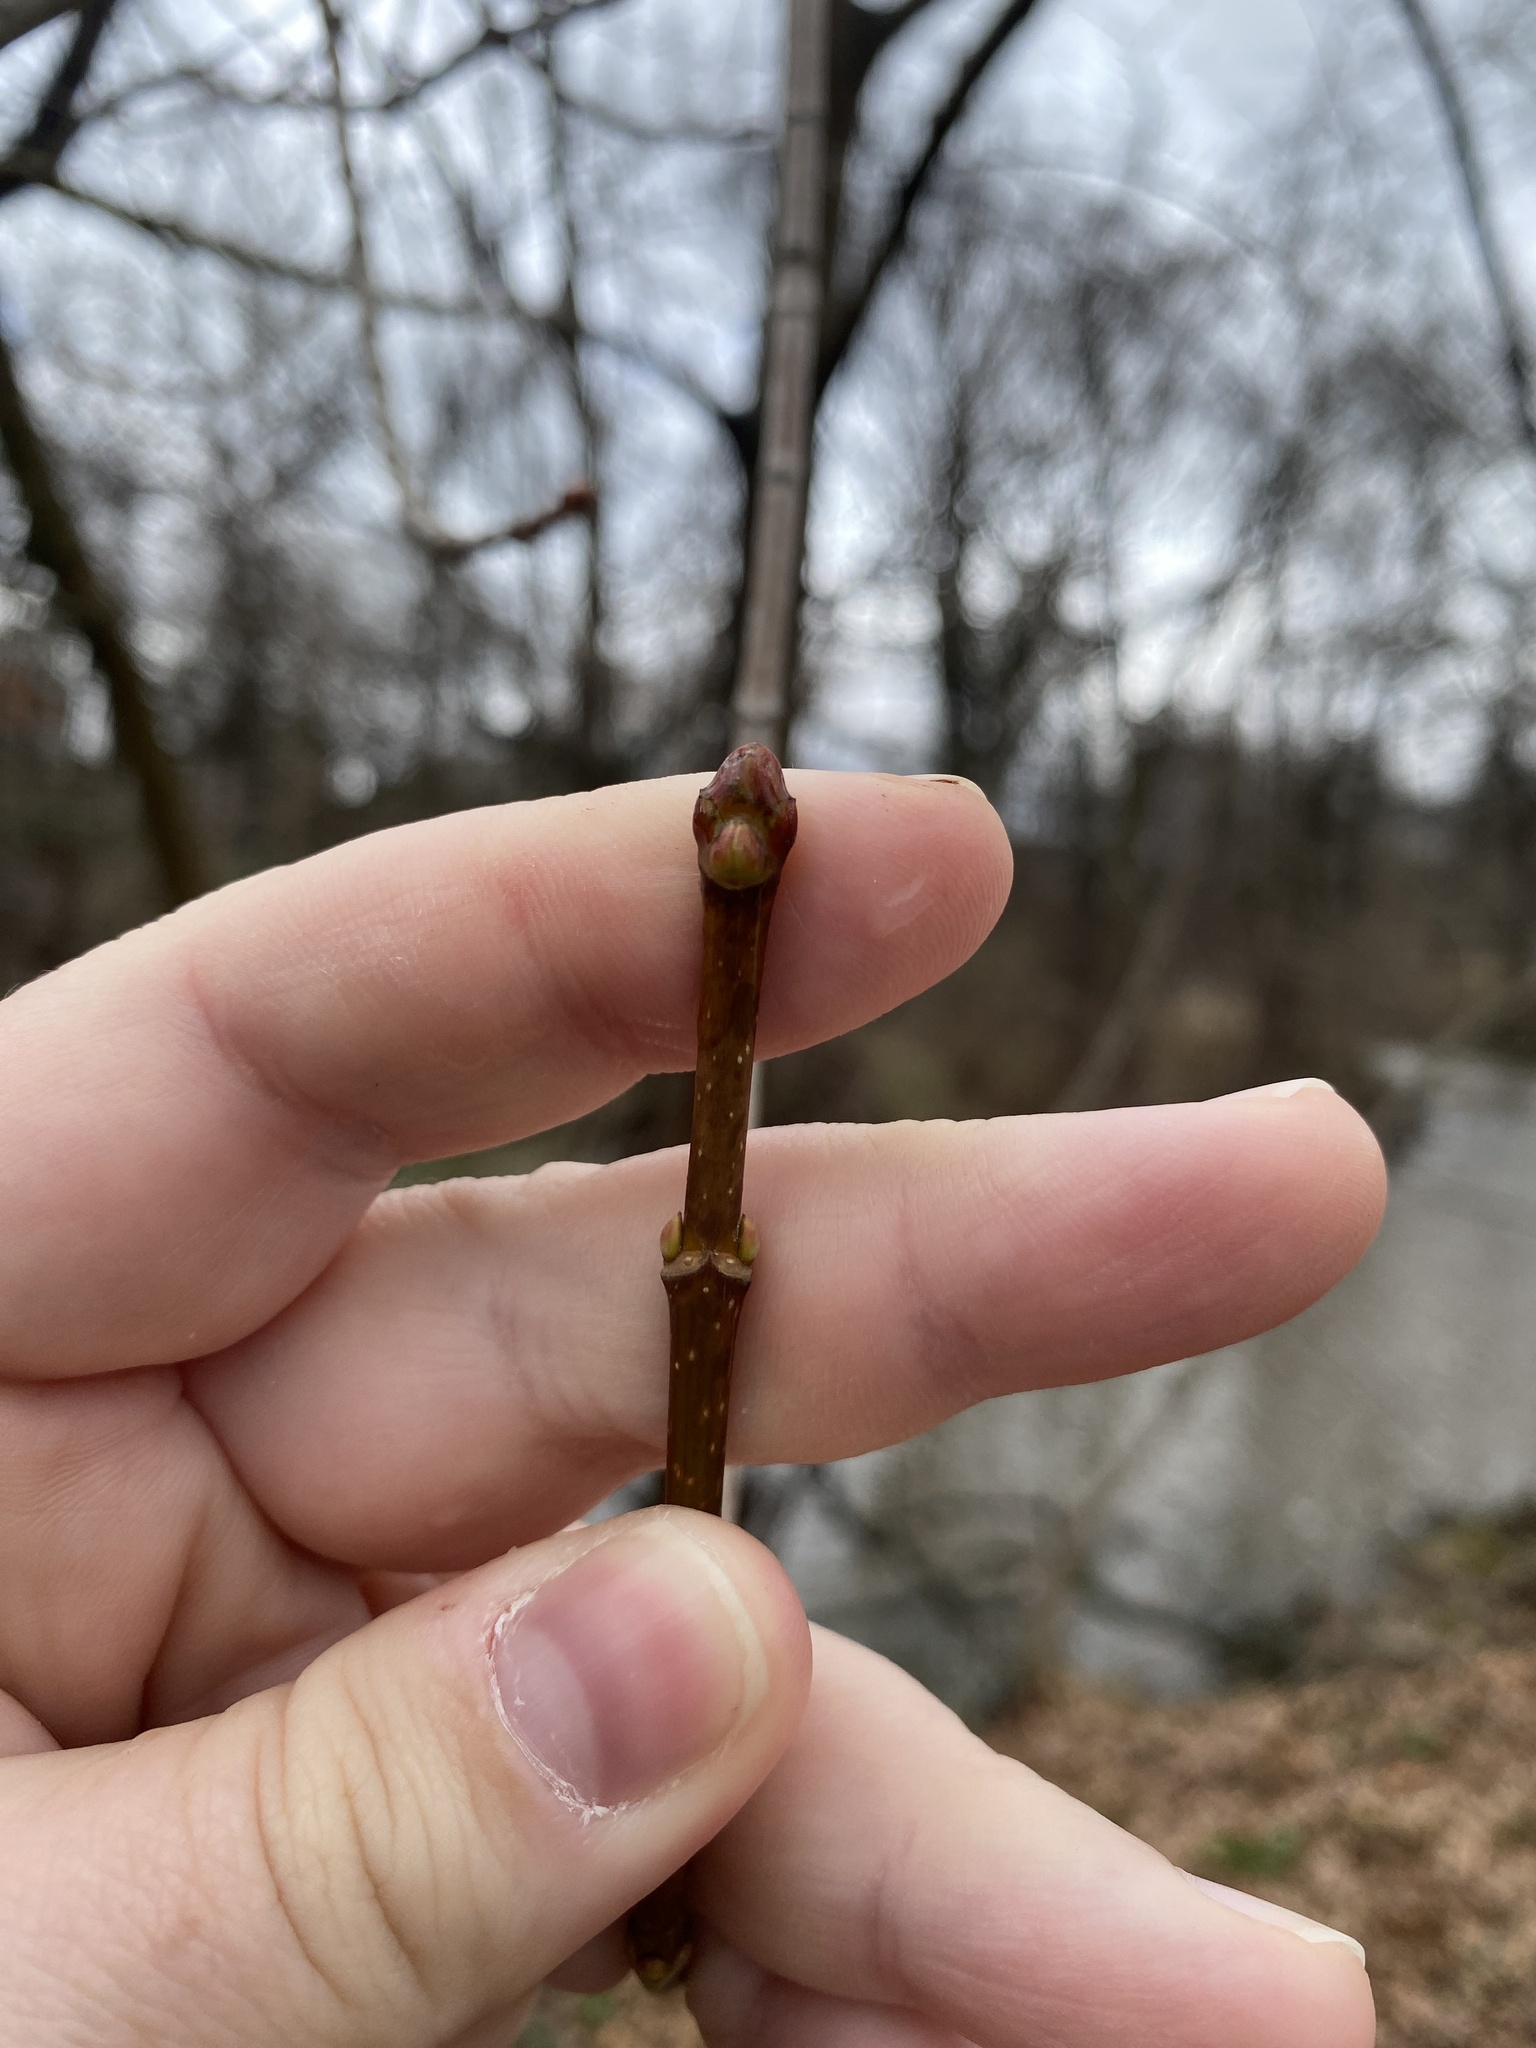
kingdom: Plantae
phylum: Tracheophyta
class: Magnoliopsida
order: Sapindales
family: Sapindaceae
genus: Acer
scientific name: Acer platanoides
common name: Norway maple
